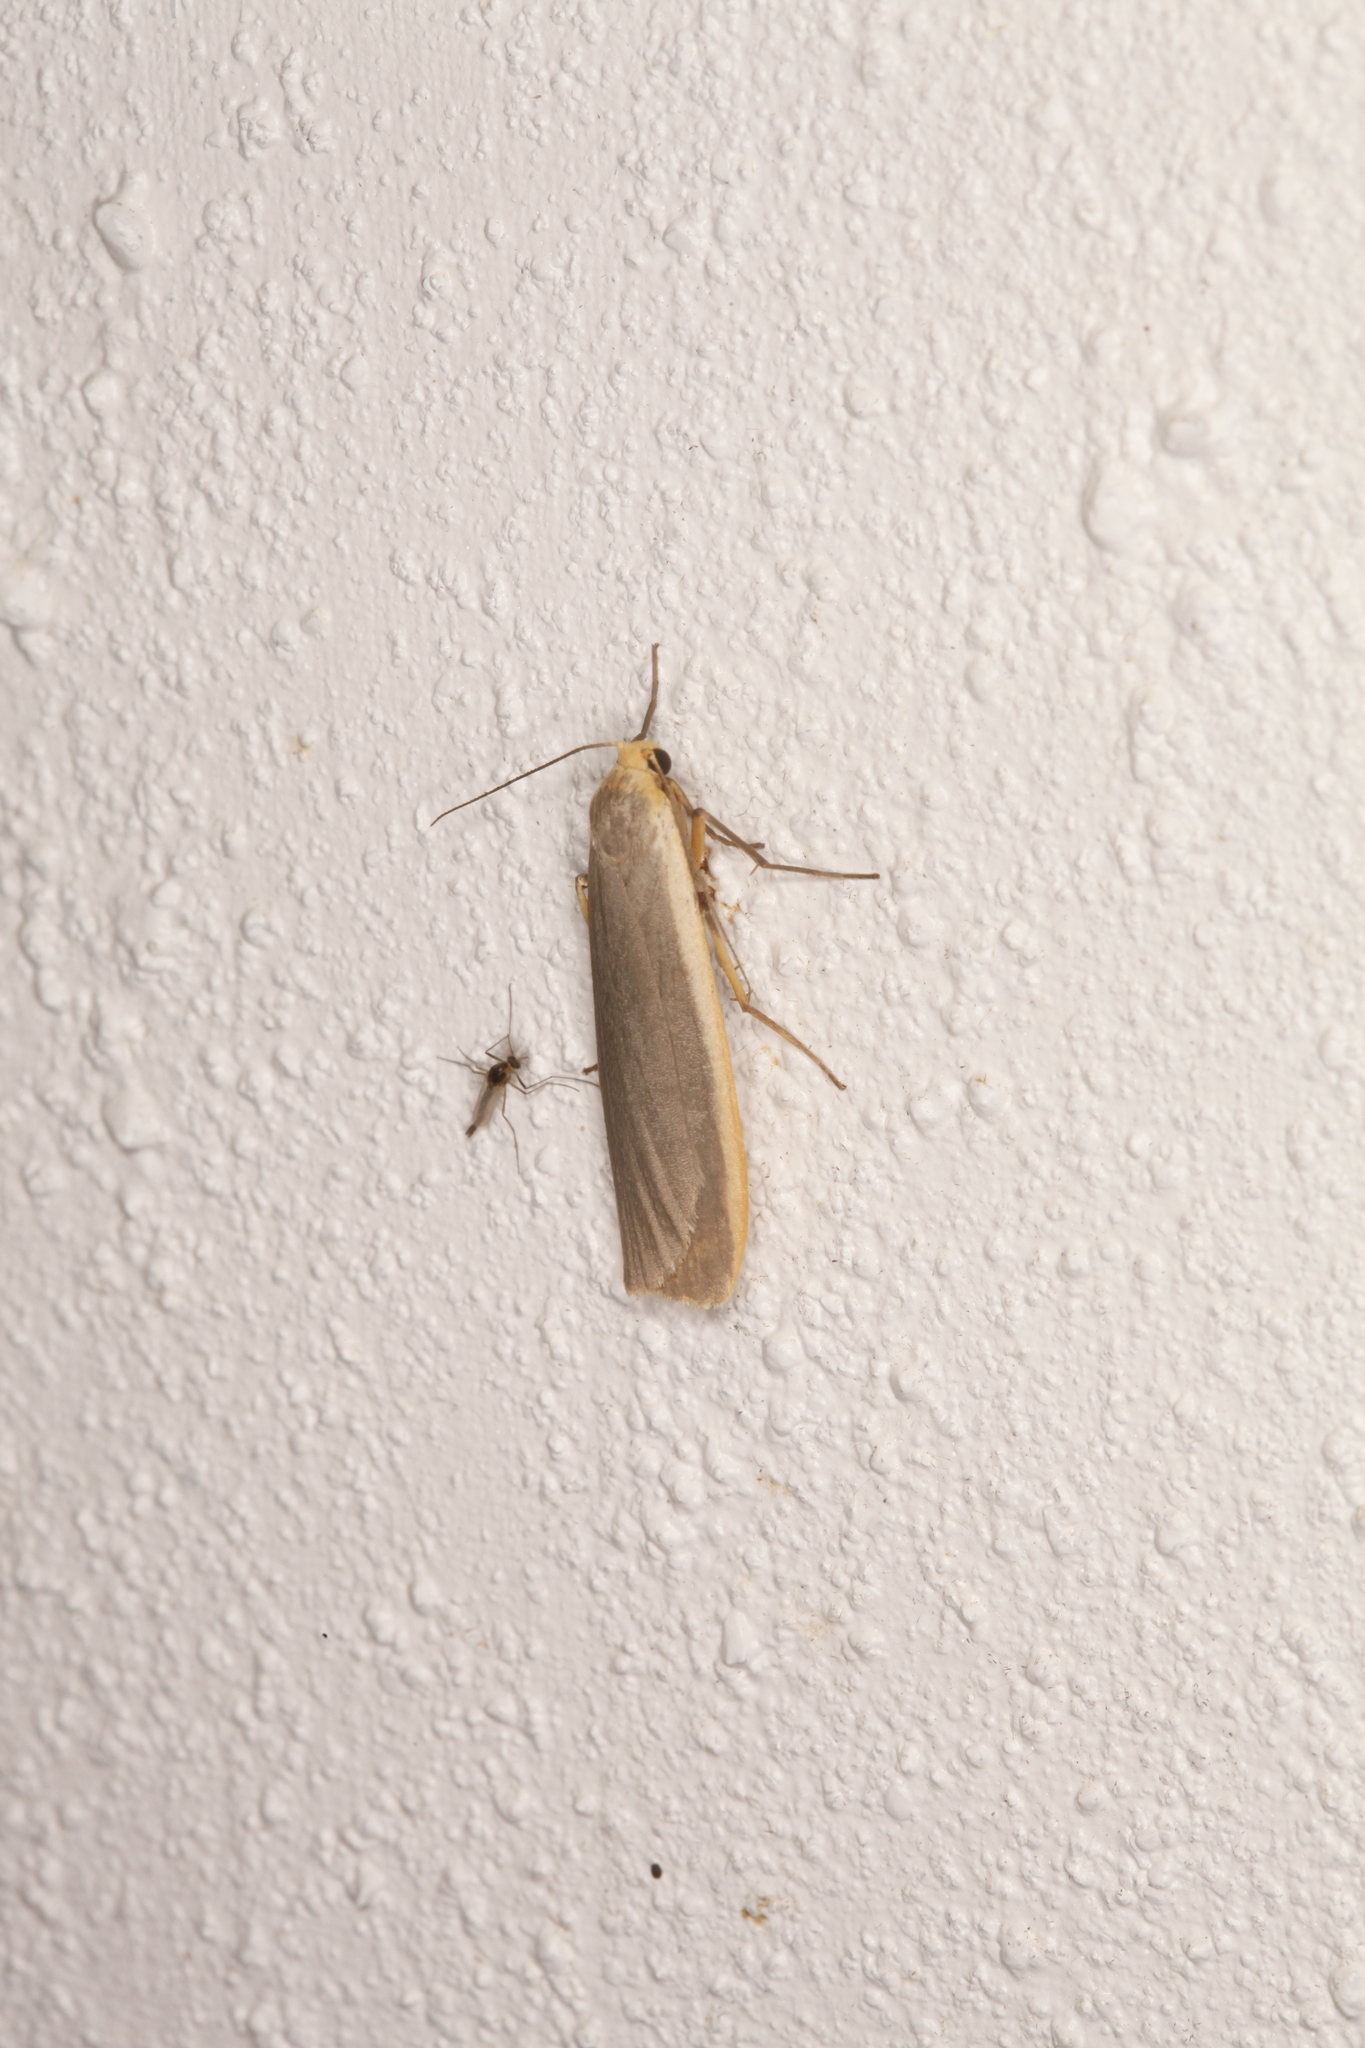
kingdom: Animalia
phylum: Arthropoda
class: Insecta
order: Lepidoptera
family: Erebidae
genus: Nyea
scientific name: Nyea lurideola
